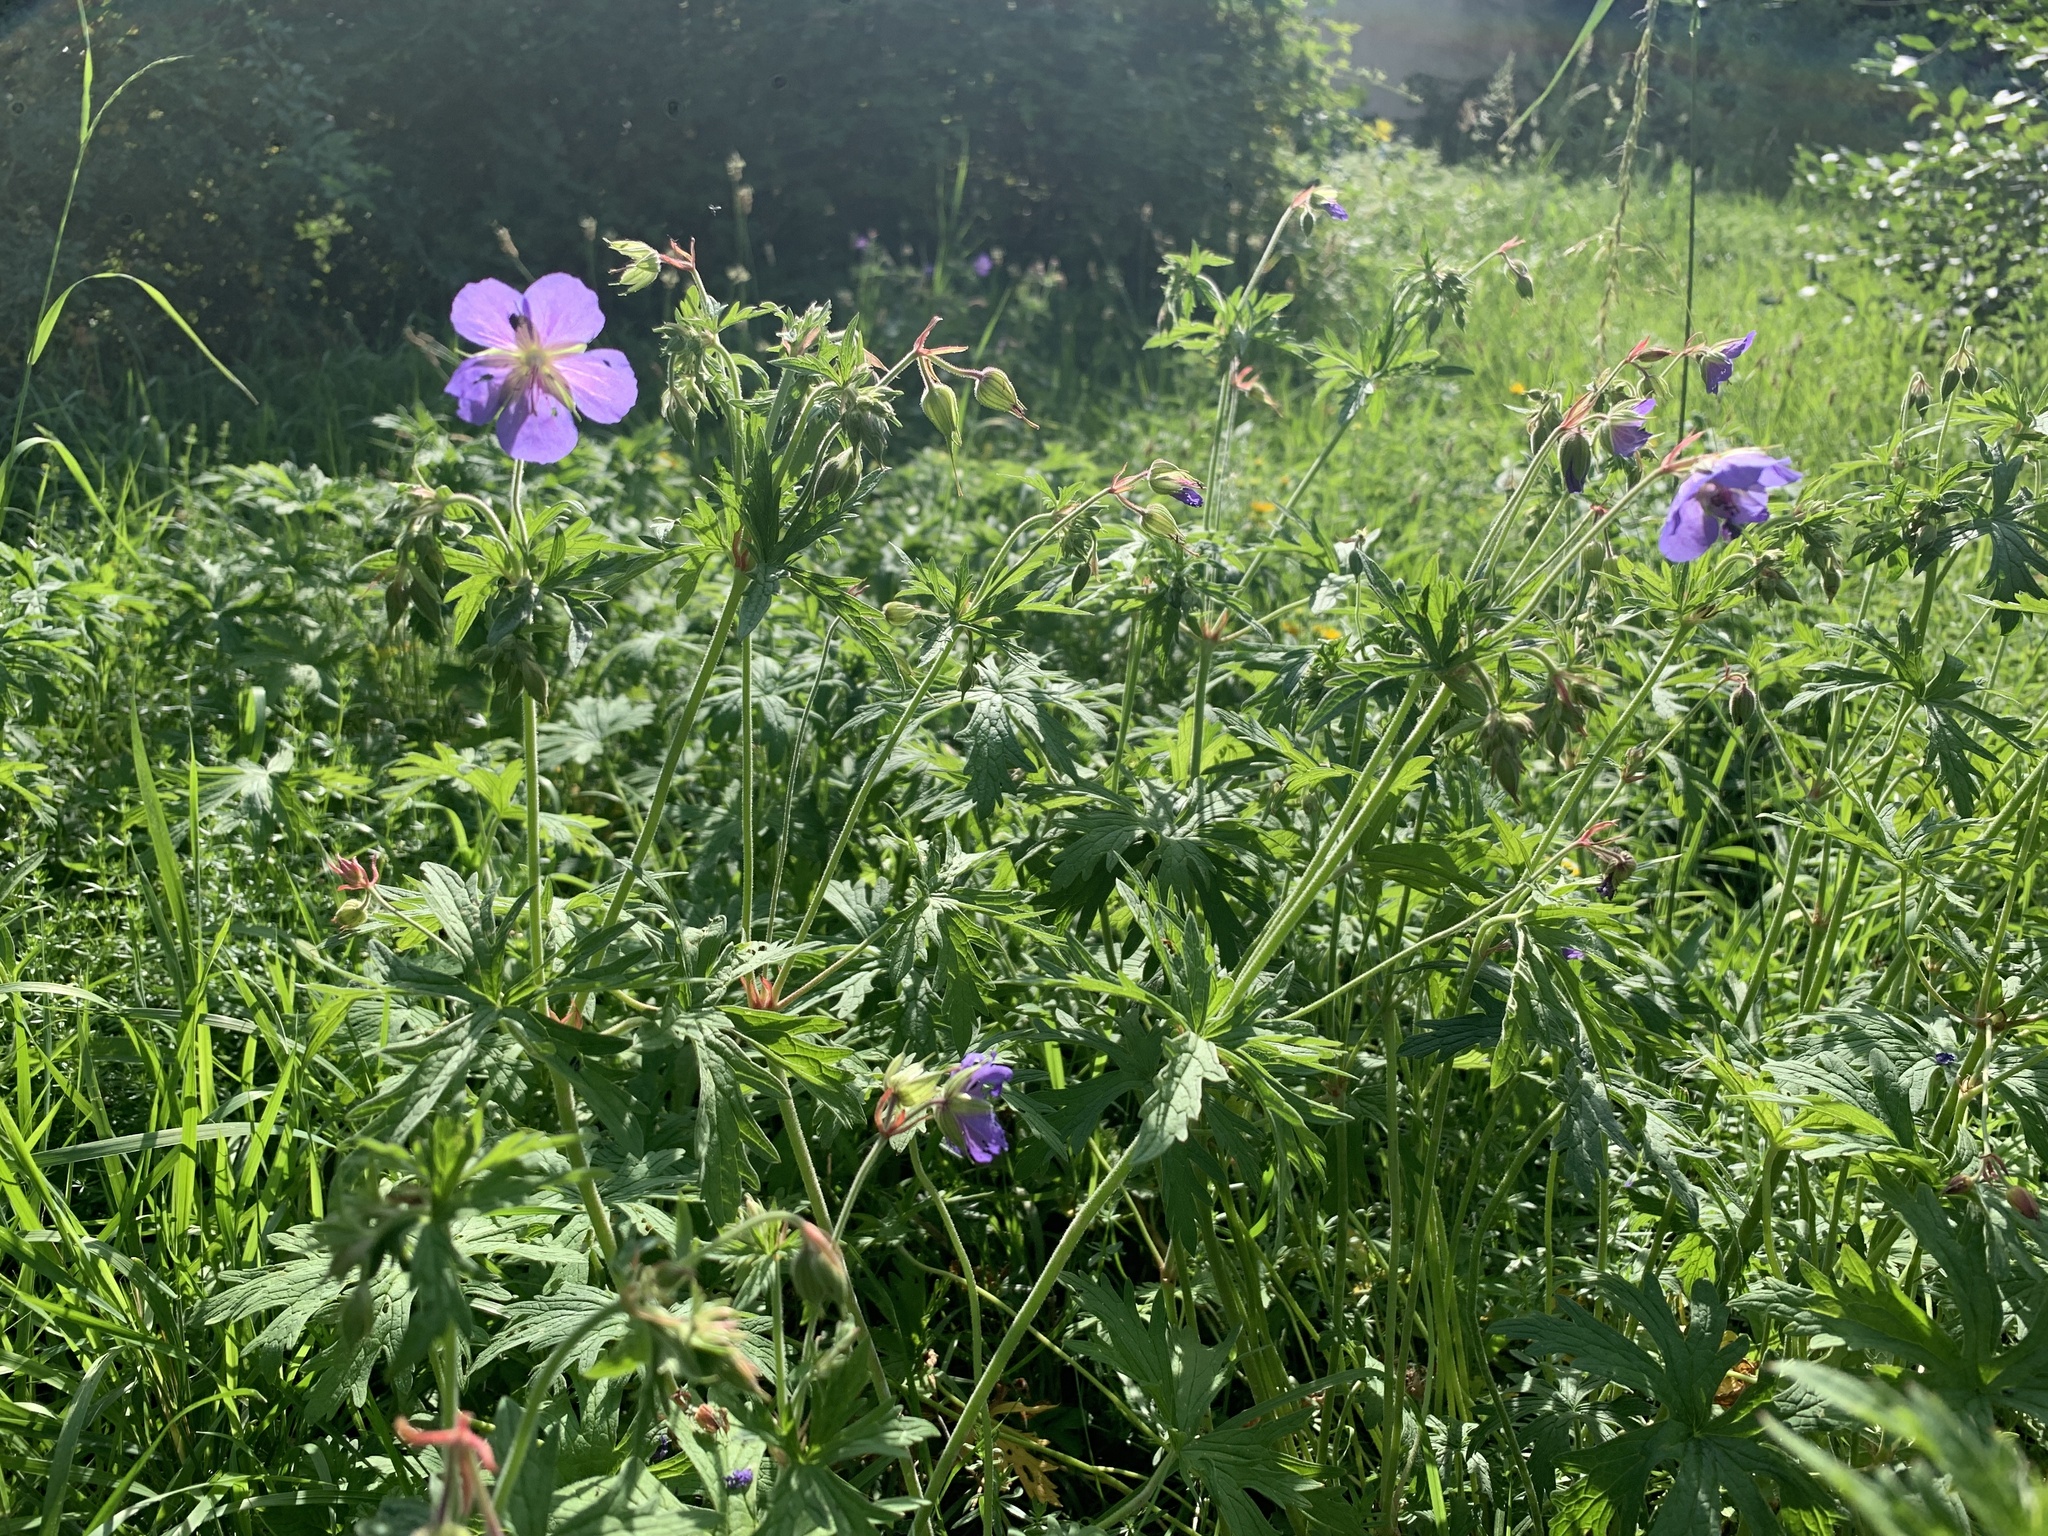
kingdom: Plantae
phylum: Tracheophyta
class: Magnoliopsida
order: Geraniales
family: Geraniaceae
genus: Geranium
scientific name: Geranium pratense
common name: Meadow crane's-bill
